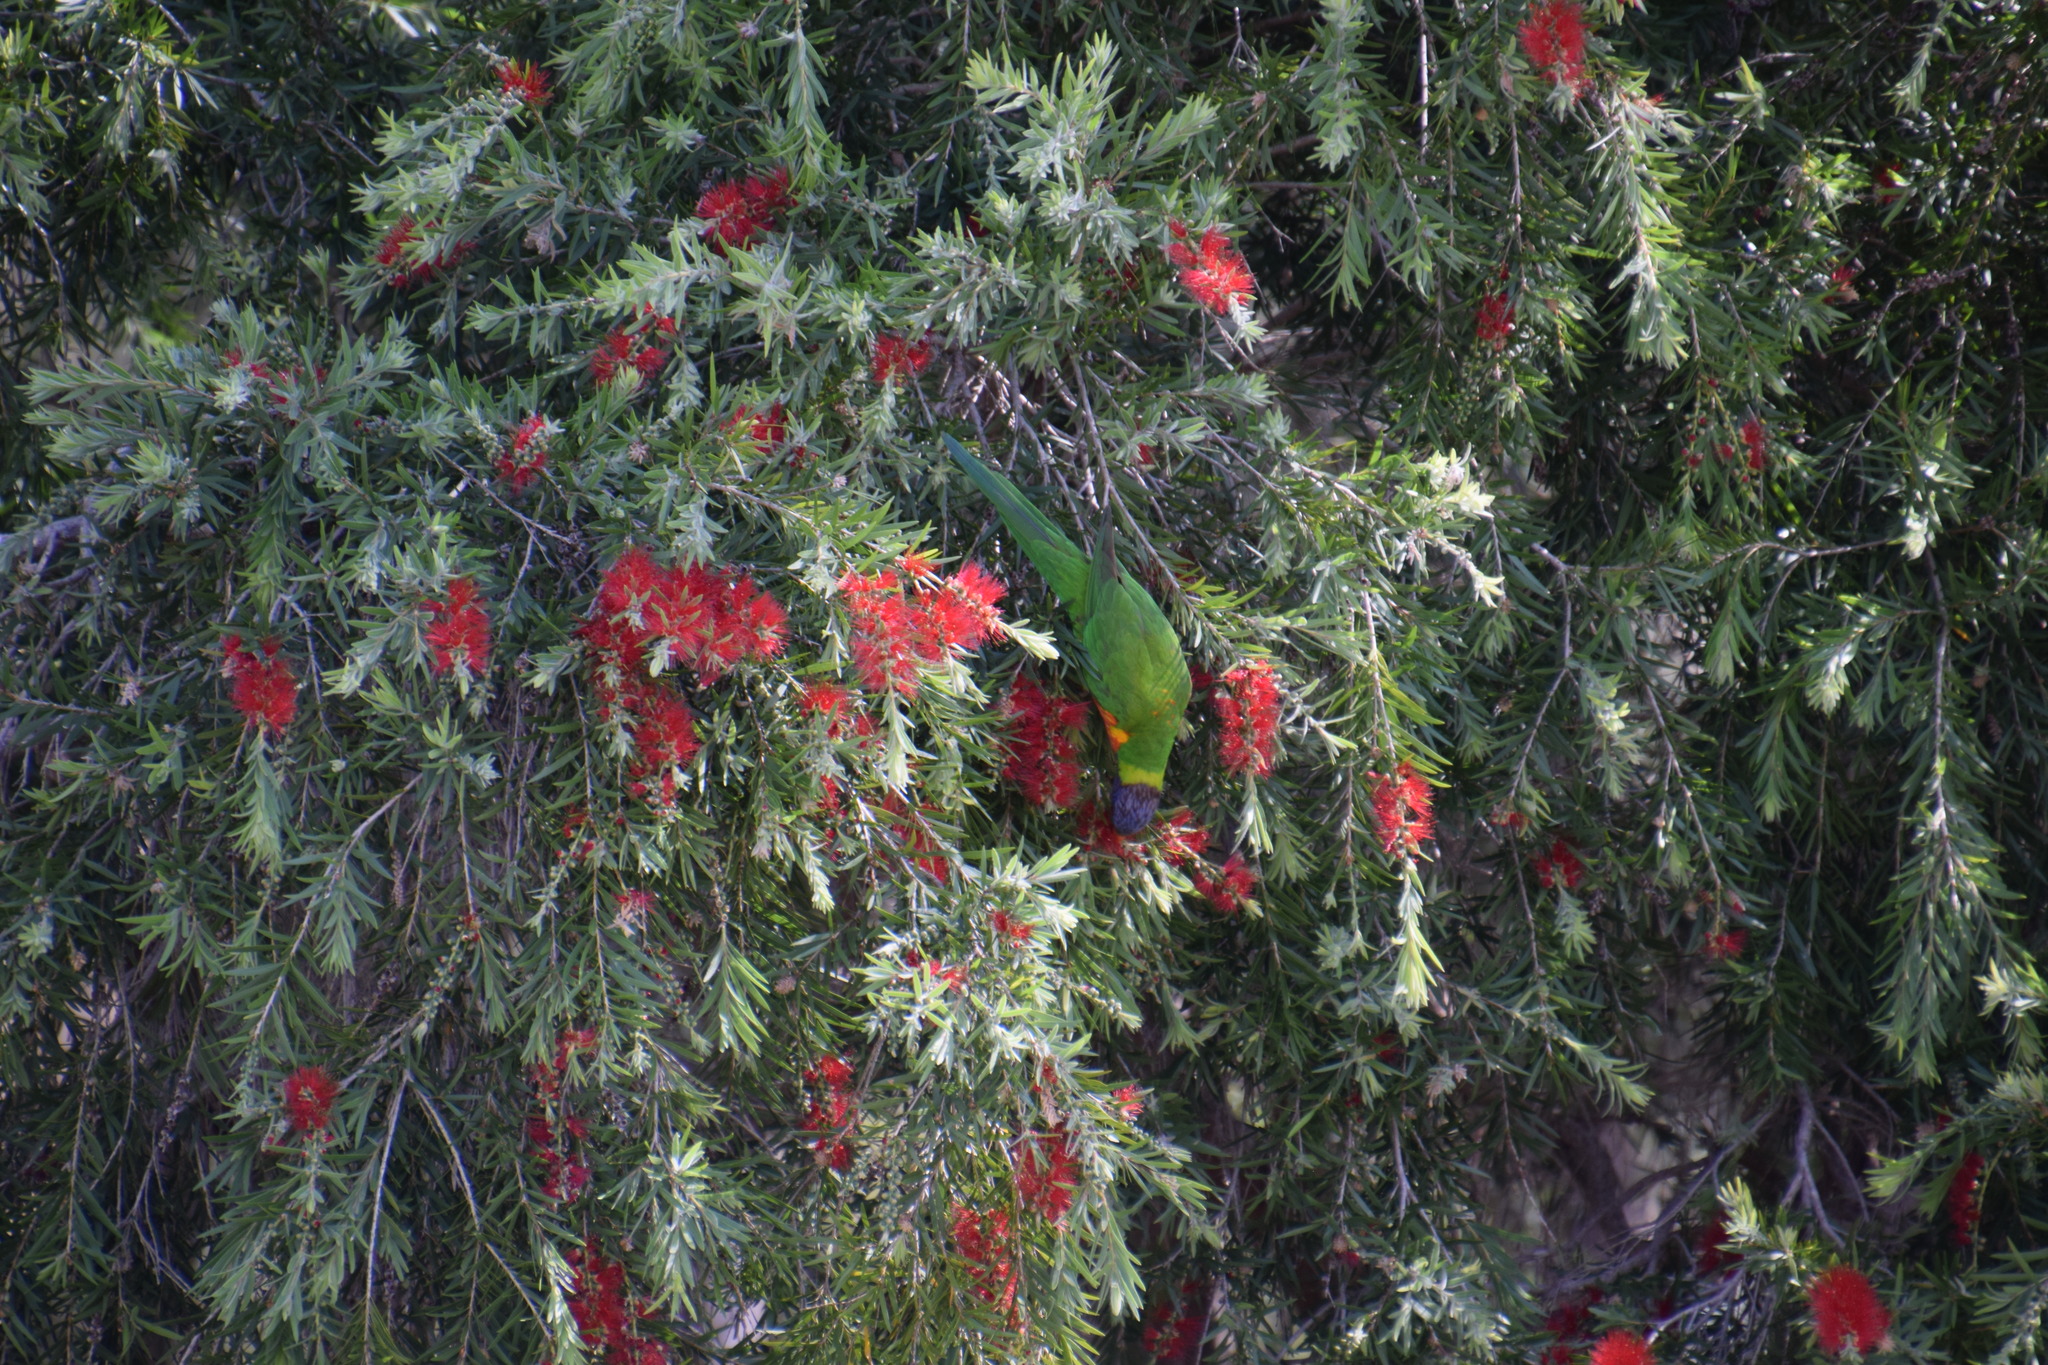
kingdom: Animalia
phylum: Chordata
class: Aves
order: Psittaciformes
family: Psittacidae
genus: Trichoglossus
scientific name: Trichoglossus haematodus
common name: Coconut lorikeet
